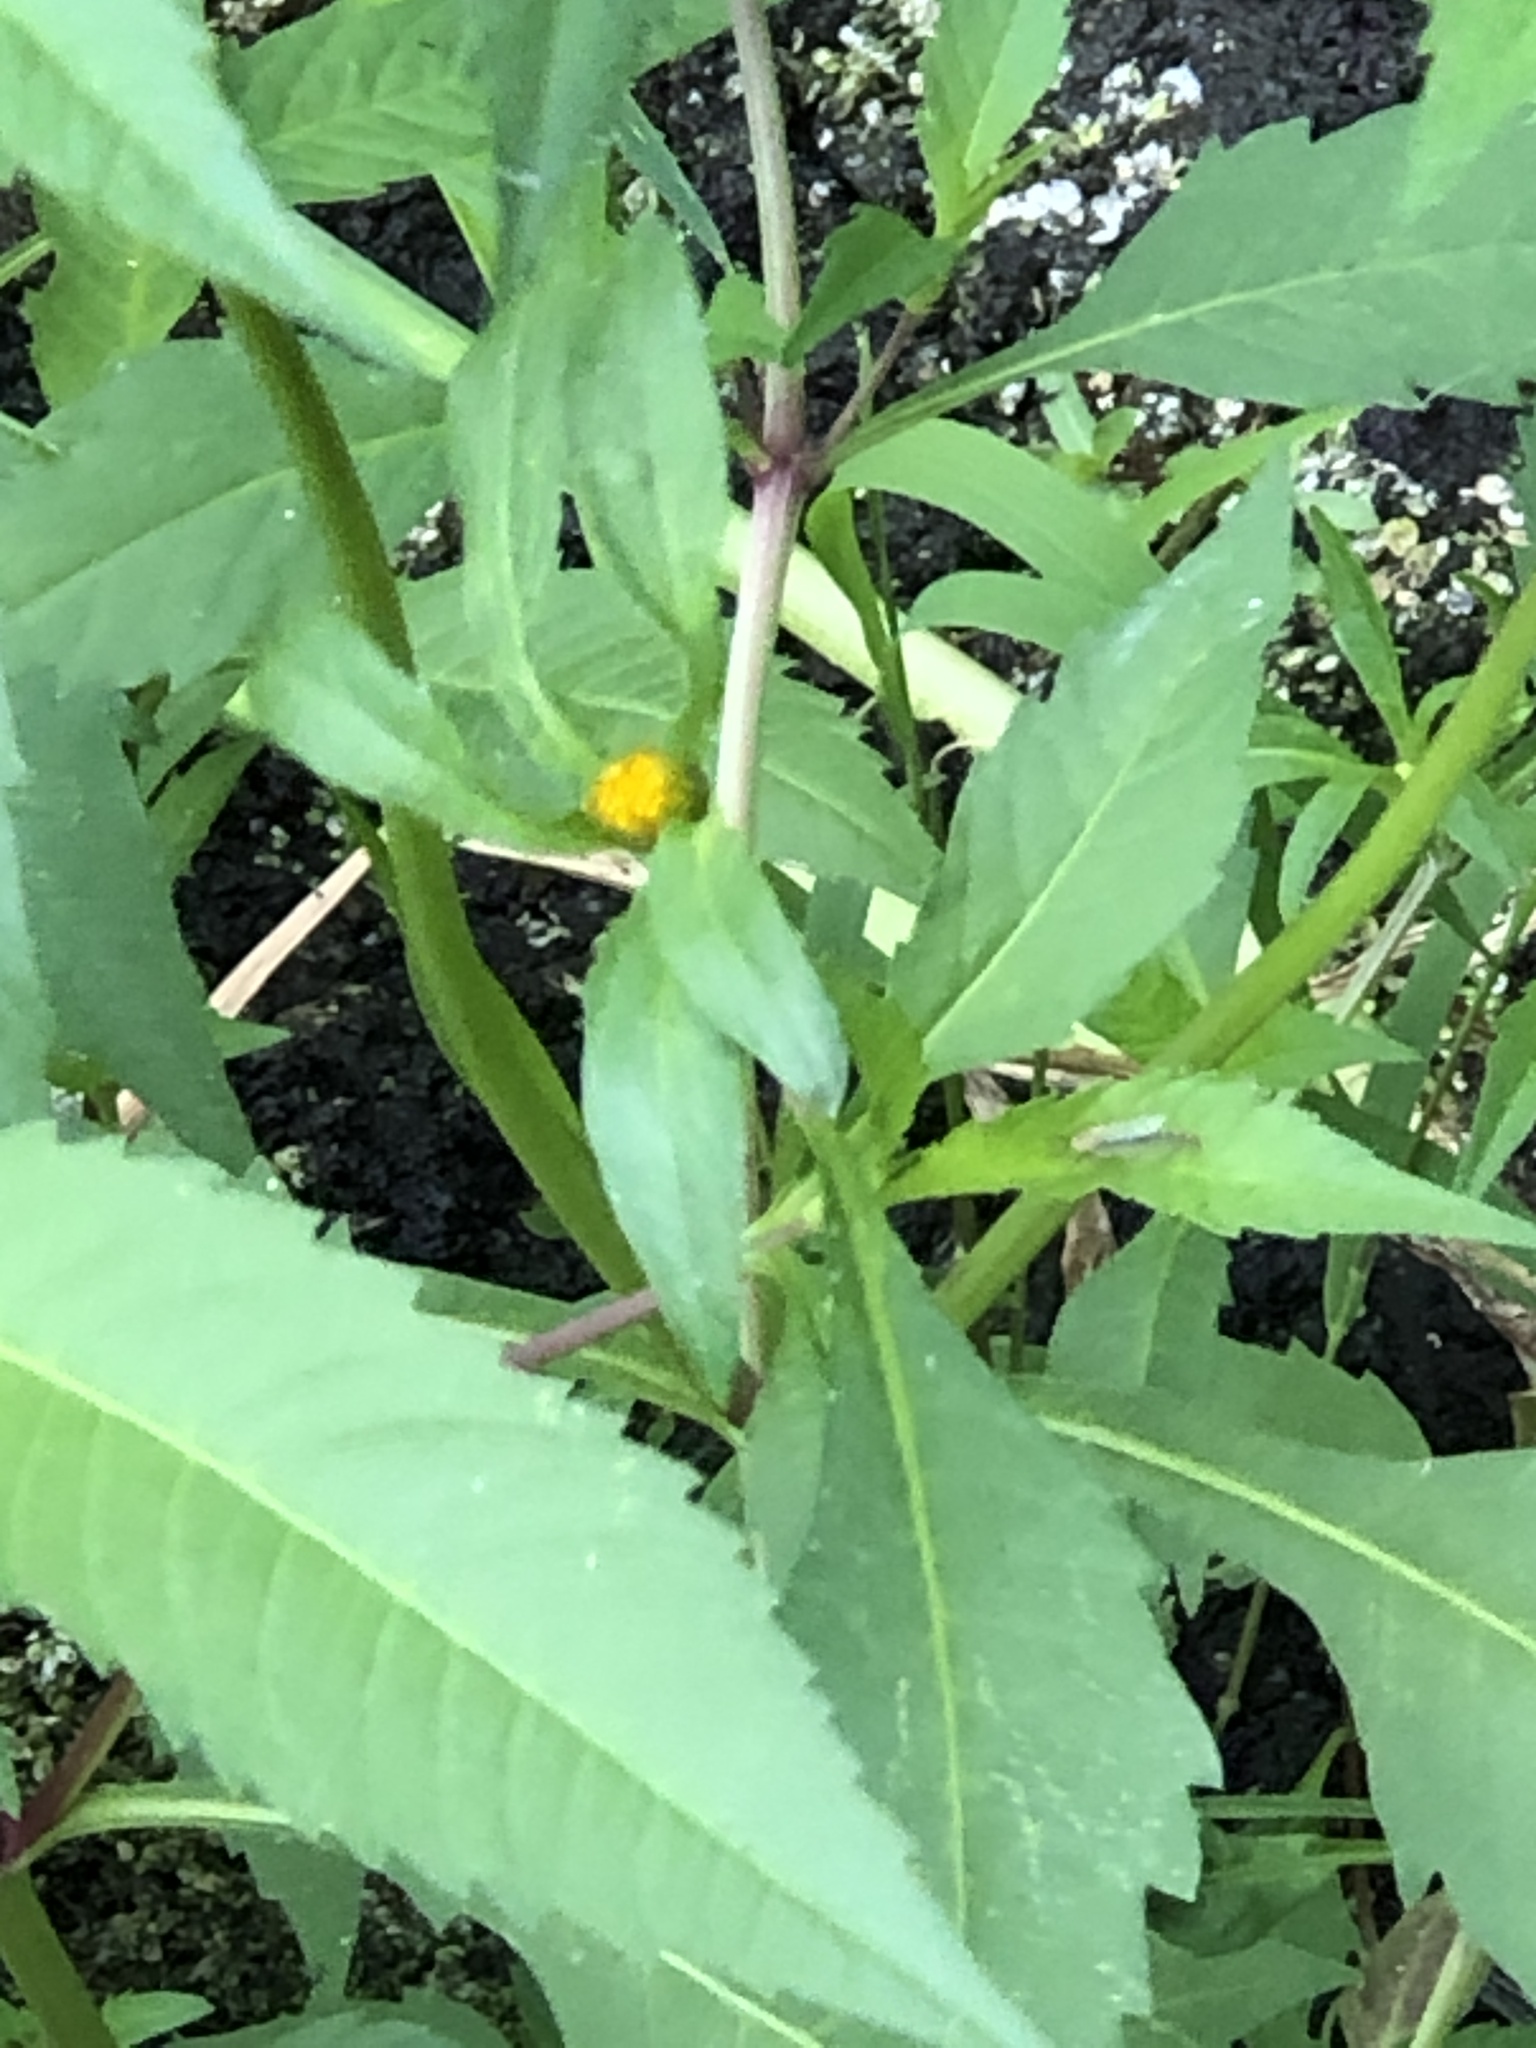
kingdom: Plantae
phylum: Tracheophyta
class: Magnoliopsida
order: Asterales
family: Asteraceae
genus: Bidens
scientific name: Bidens connata
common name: London bur-marigold
